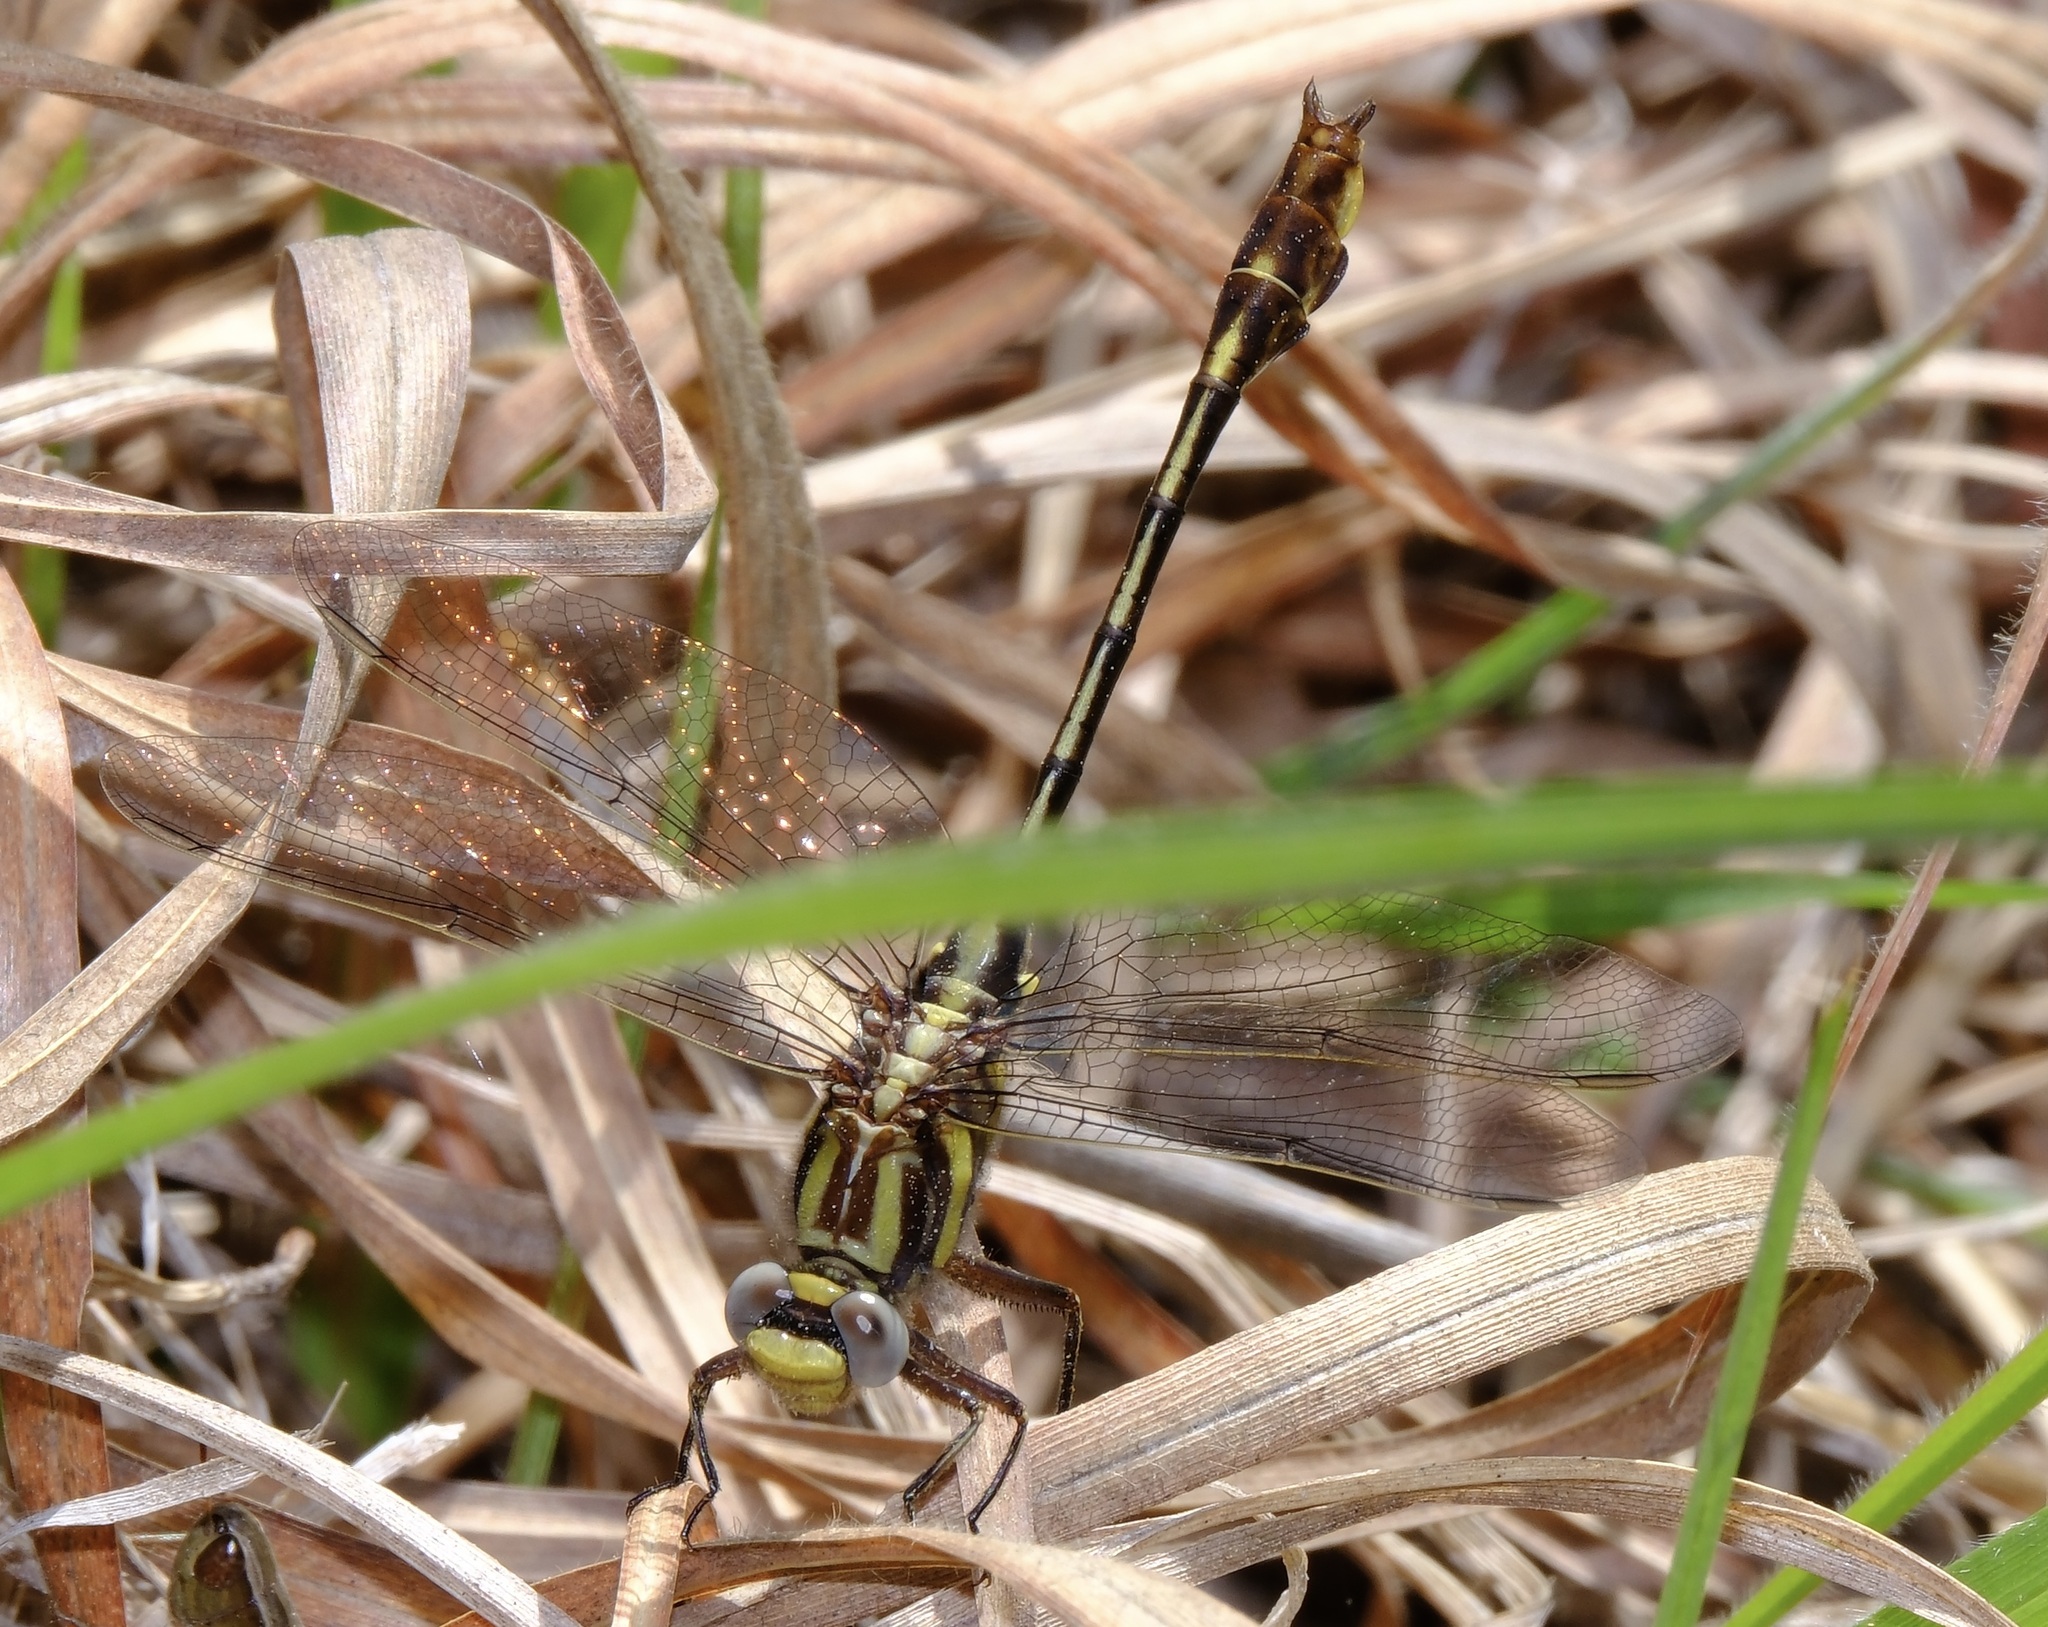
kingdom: Animalia
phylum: Arthropoda
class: Insecta
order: Odonata
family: Gomphidae
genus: Gomphurus
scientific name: Gomphurus hybridus
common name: Cocoa clubtail
